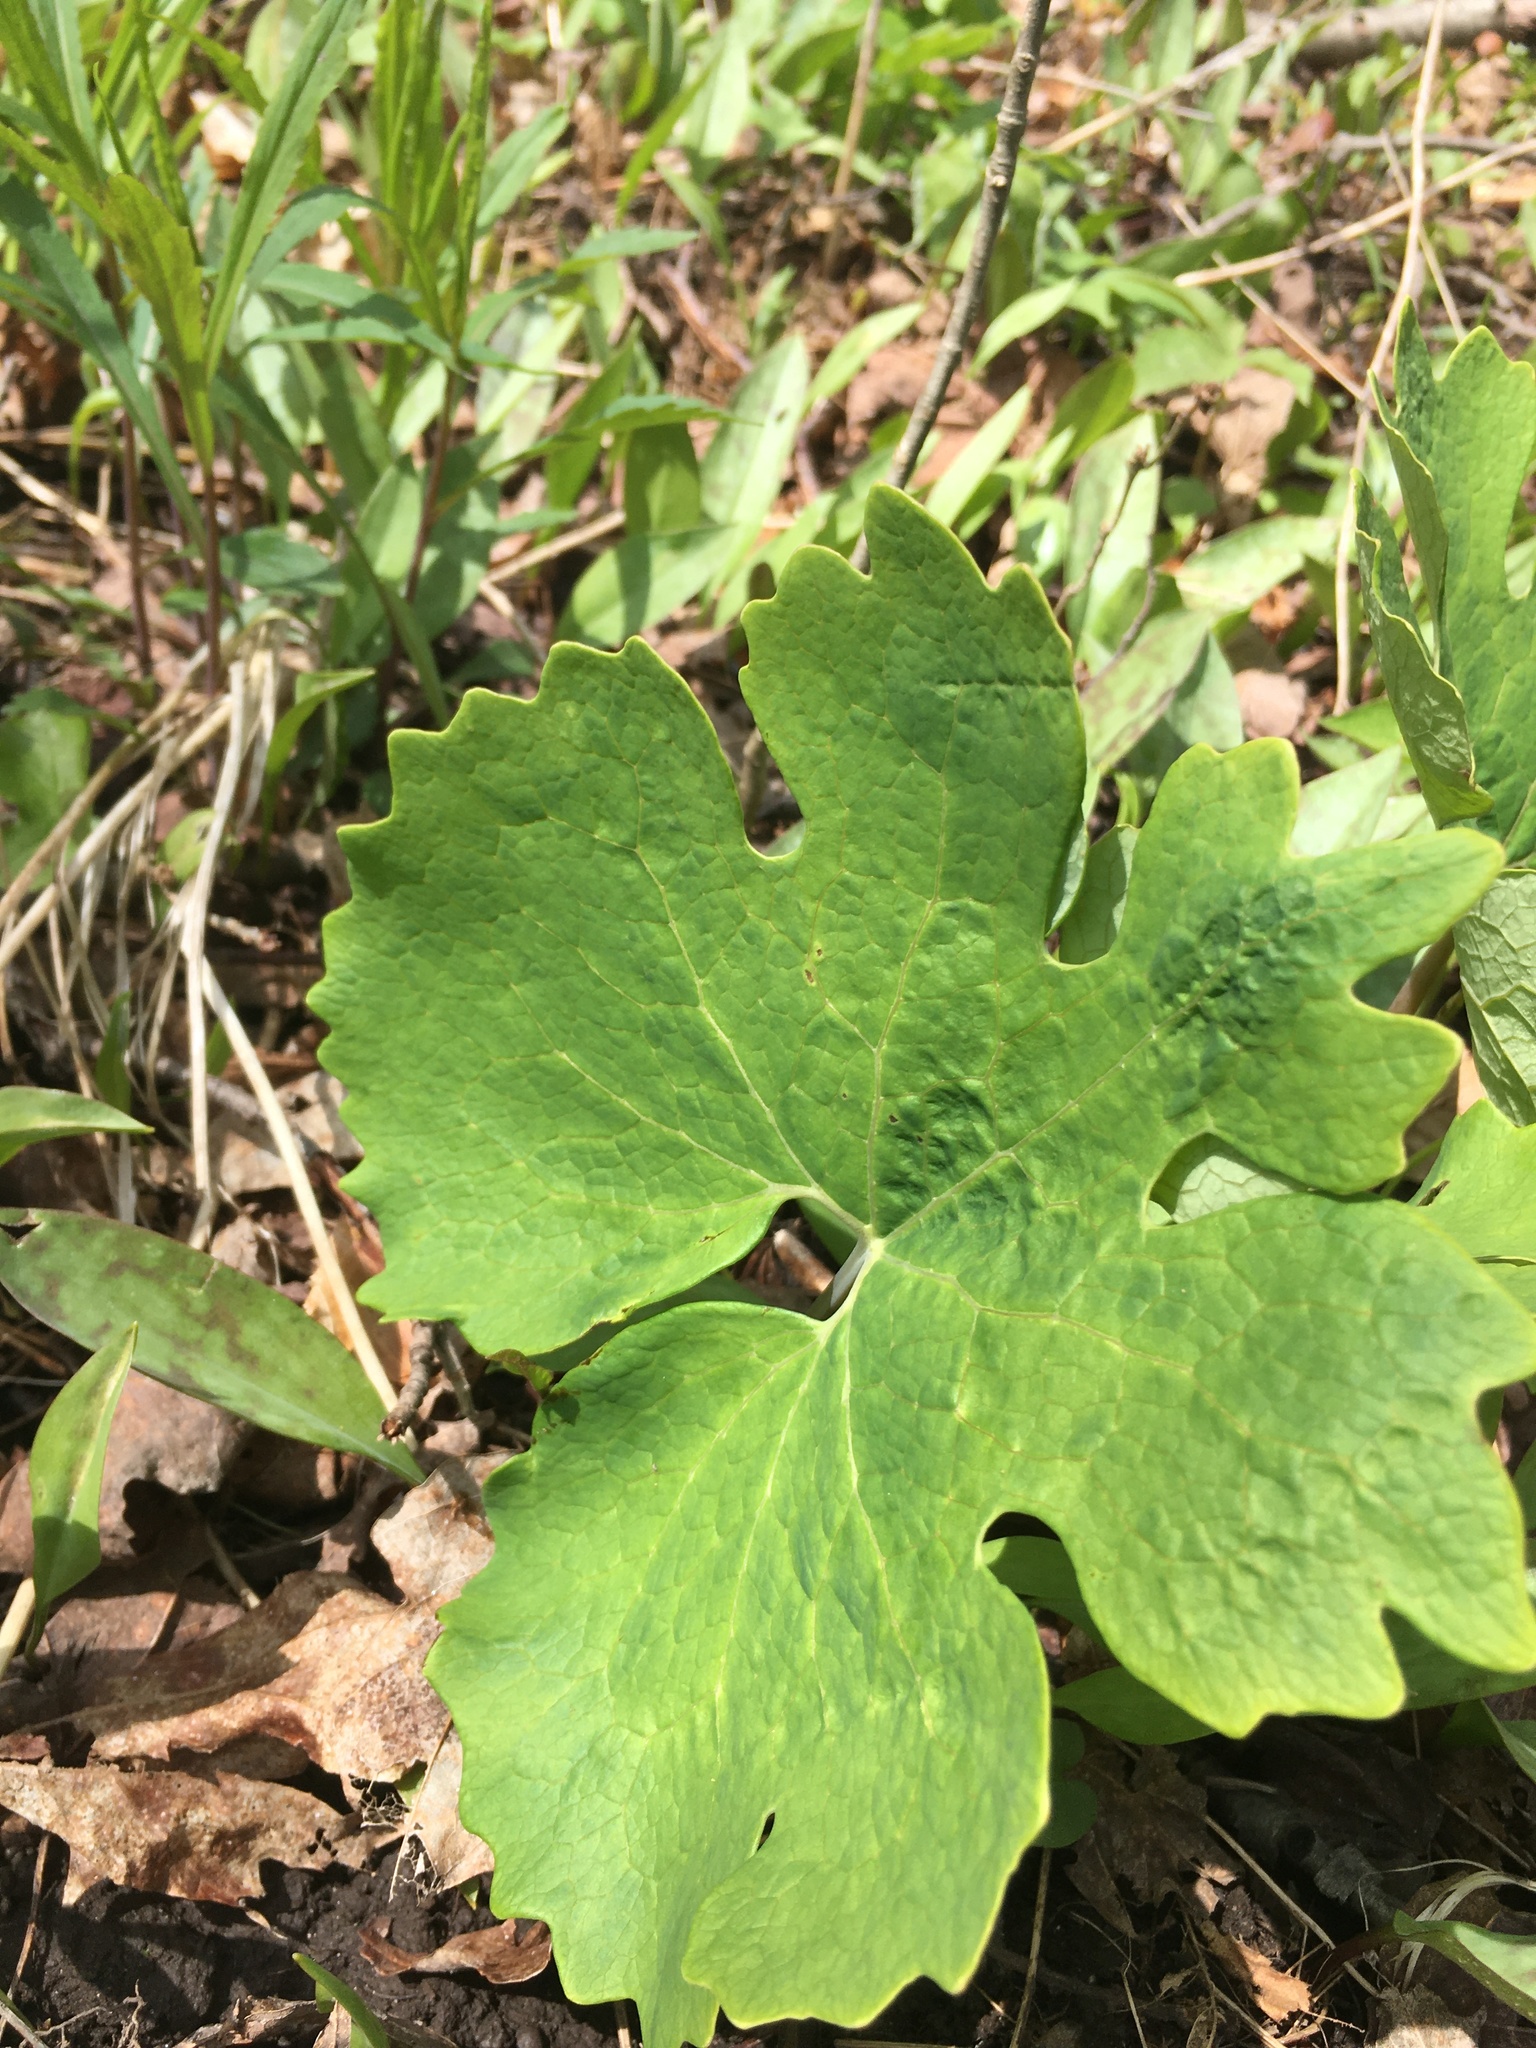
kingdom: Plantae
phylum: Tracheophyta
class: Magnoliopsida
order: Ranunculales
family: Papaveraceae
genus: Sanguinaria
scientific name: Sanguinaria canadensis
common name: Bloodroot
